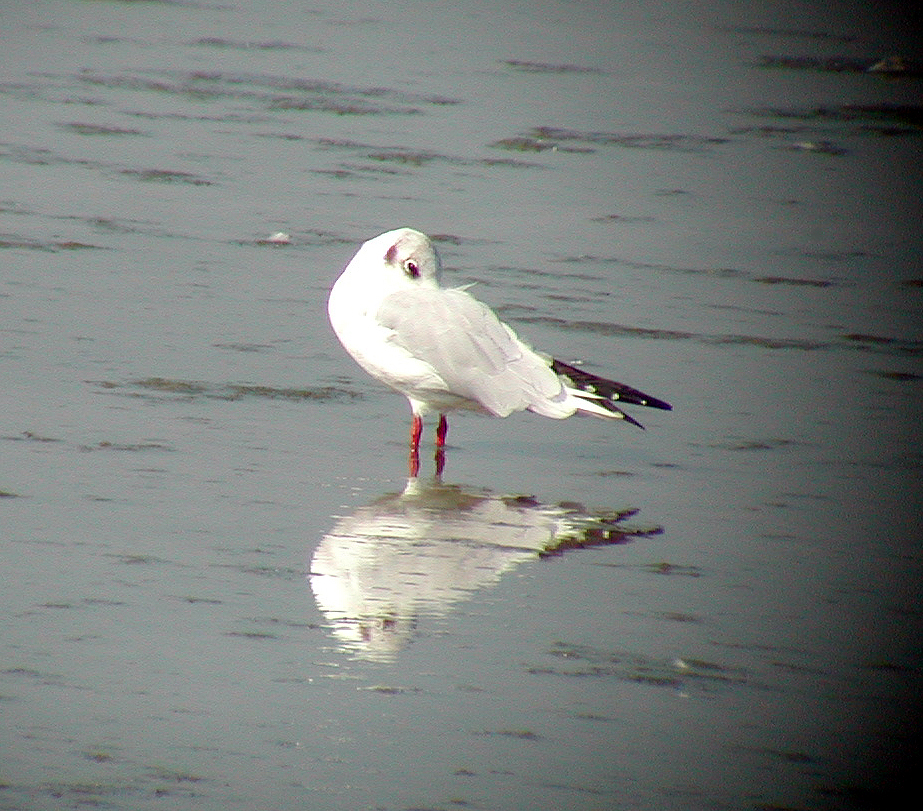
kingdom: Animalia
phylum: Chordata
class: Aves
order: Charadriiformes
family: Laridae
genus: Chroicocephalus
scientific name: Chroicocephalus ridibundus
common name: Black-headed gull
